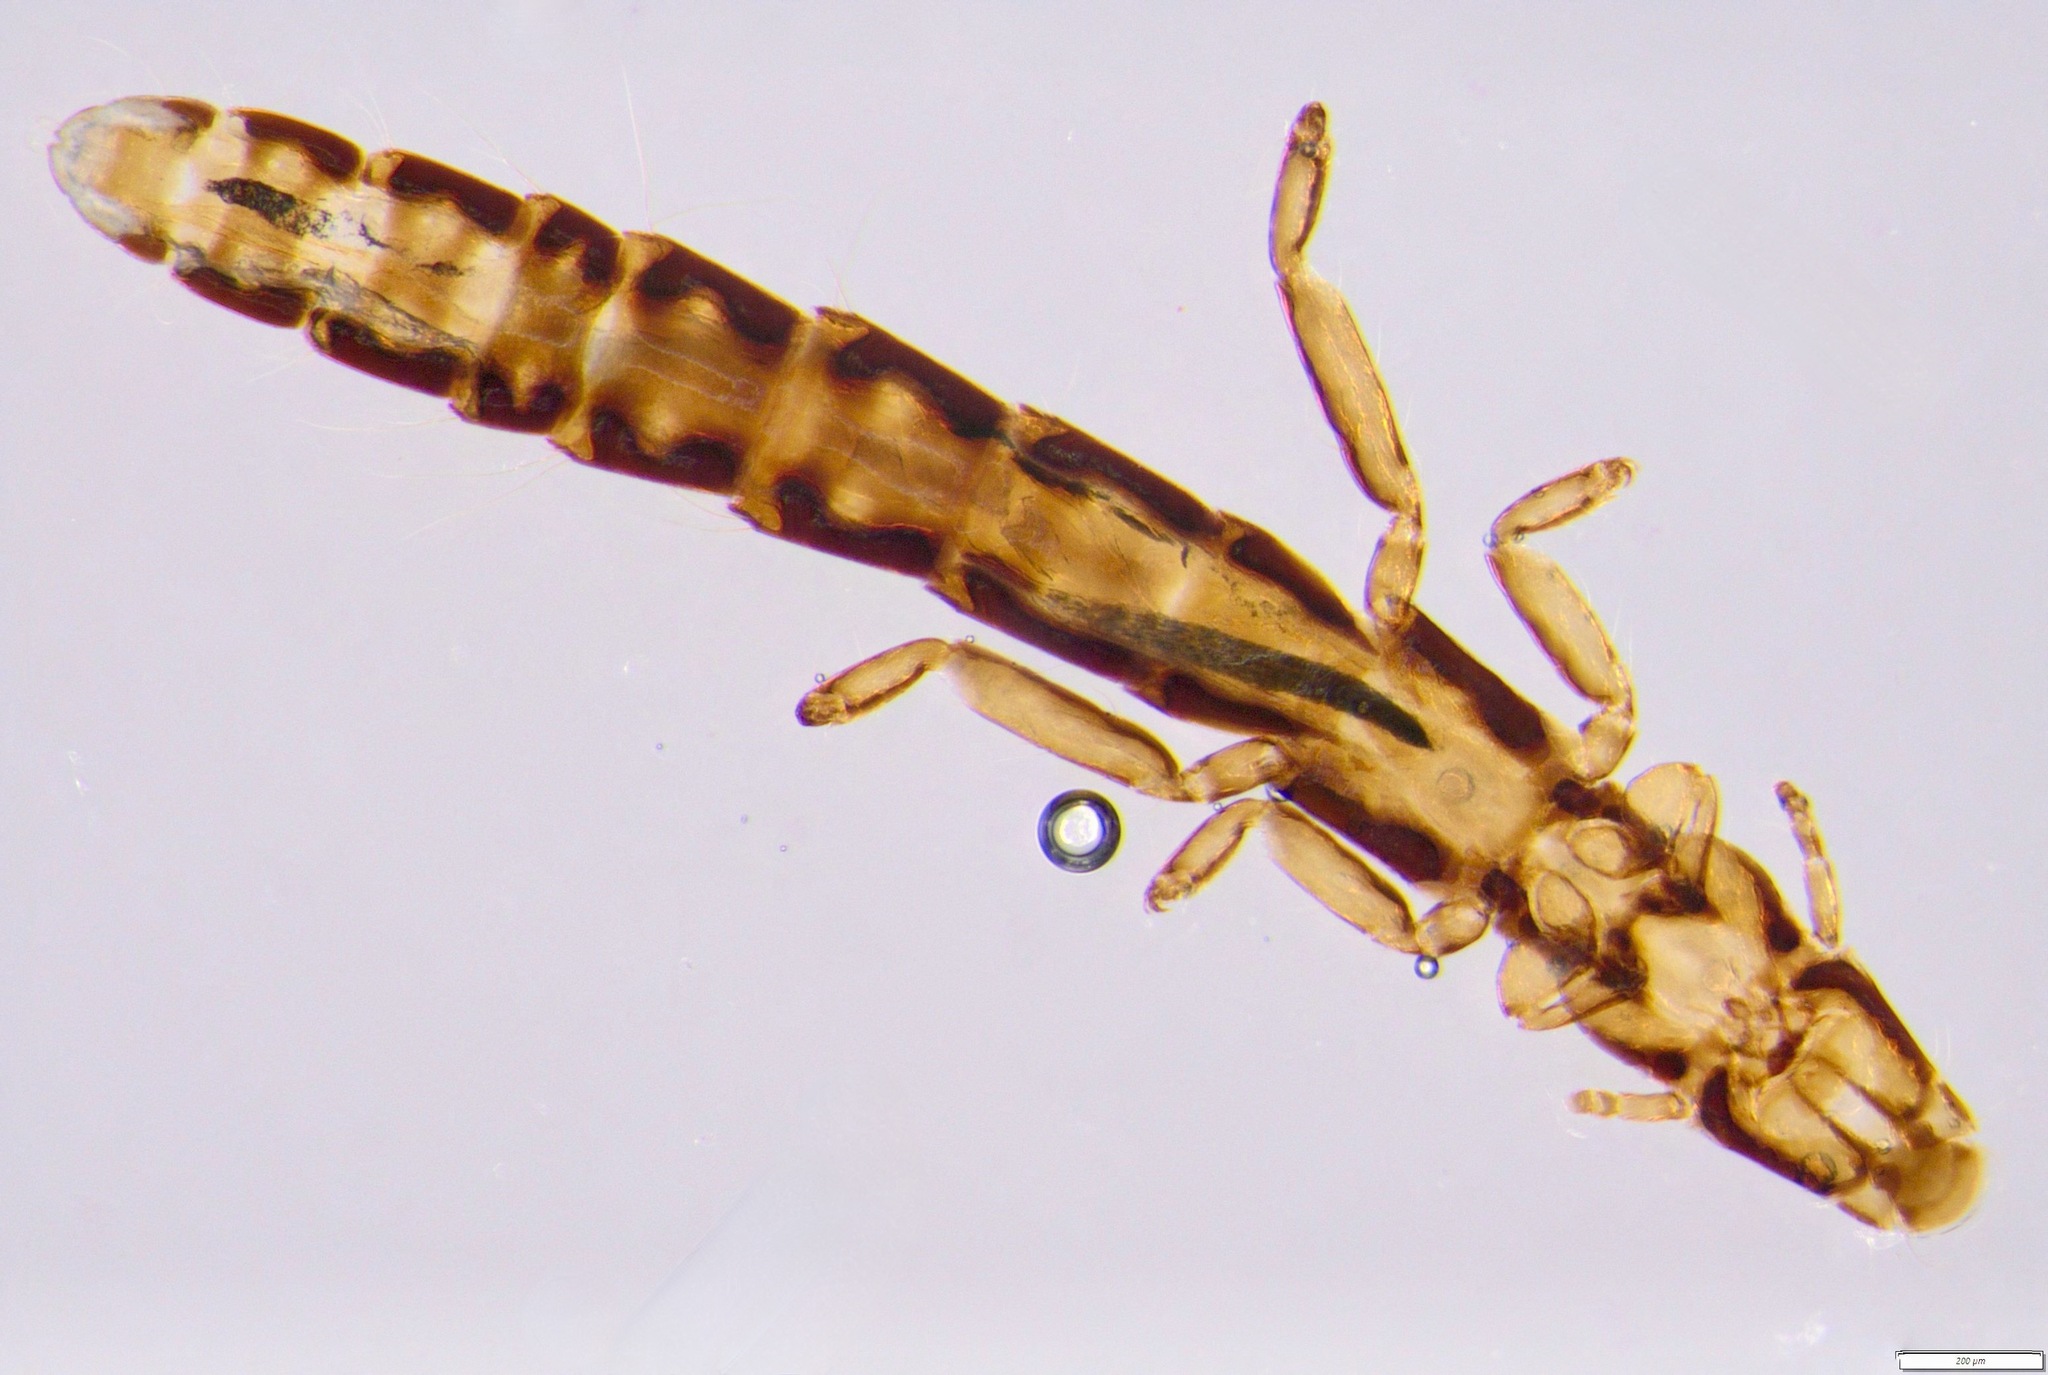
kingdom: Animalia
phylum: Arthropoda
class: Insecta
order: Psocodea
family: Philopteridae
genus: Halipeurus
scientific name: Halipeurus diversus
